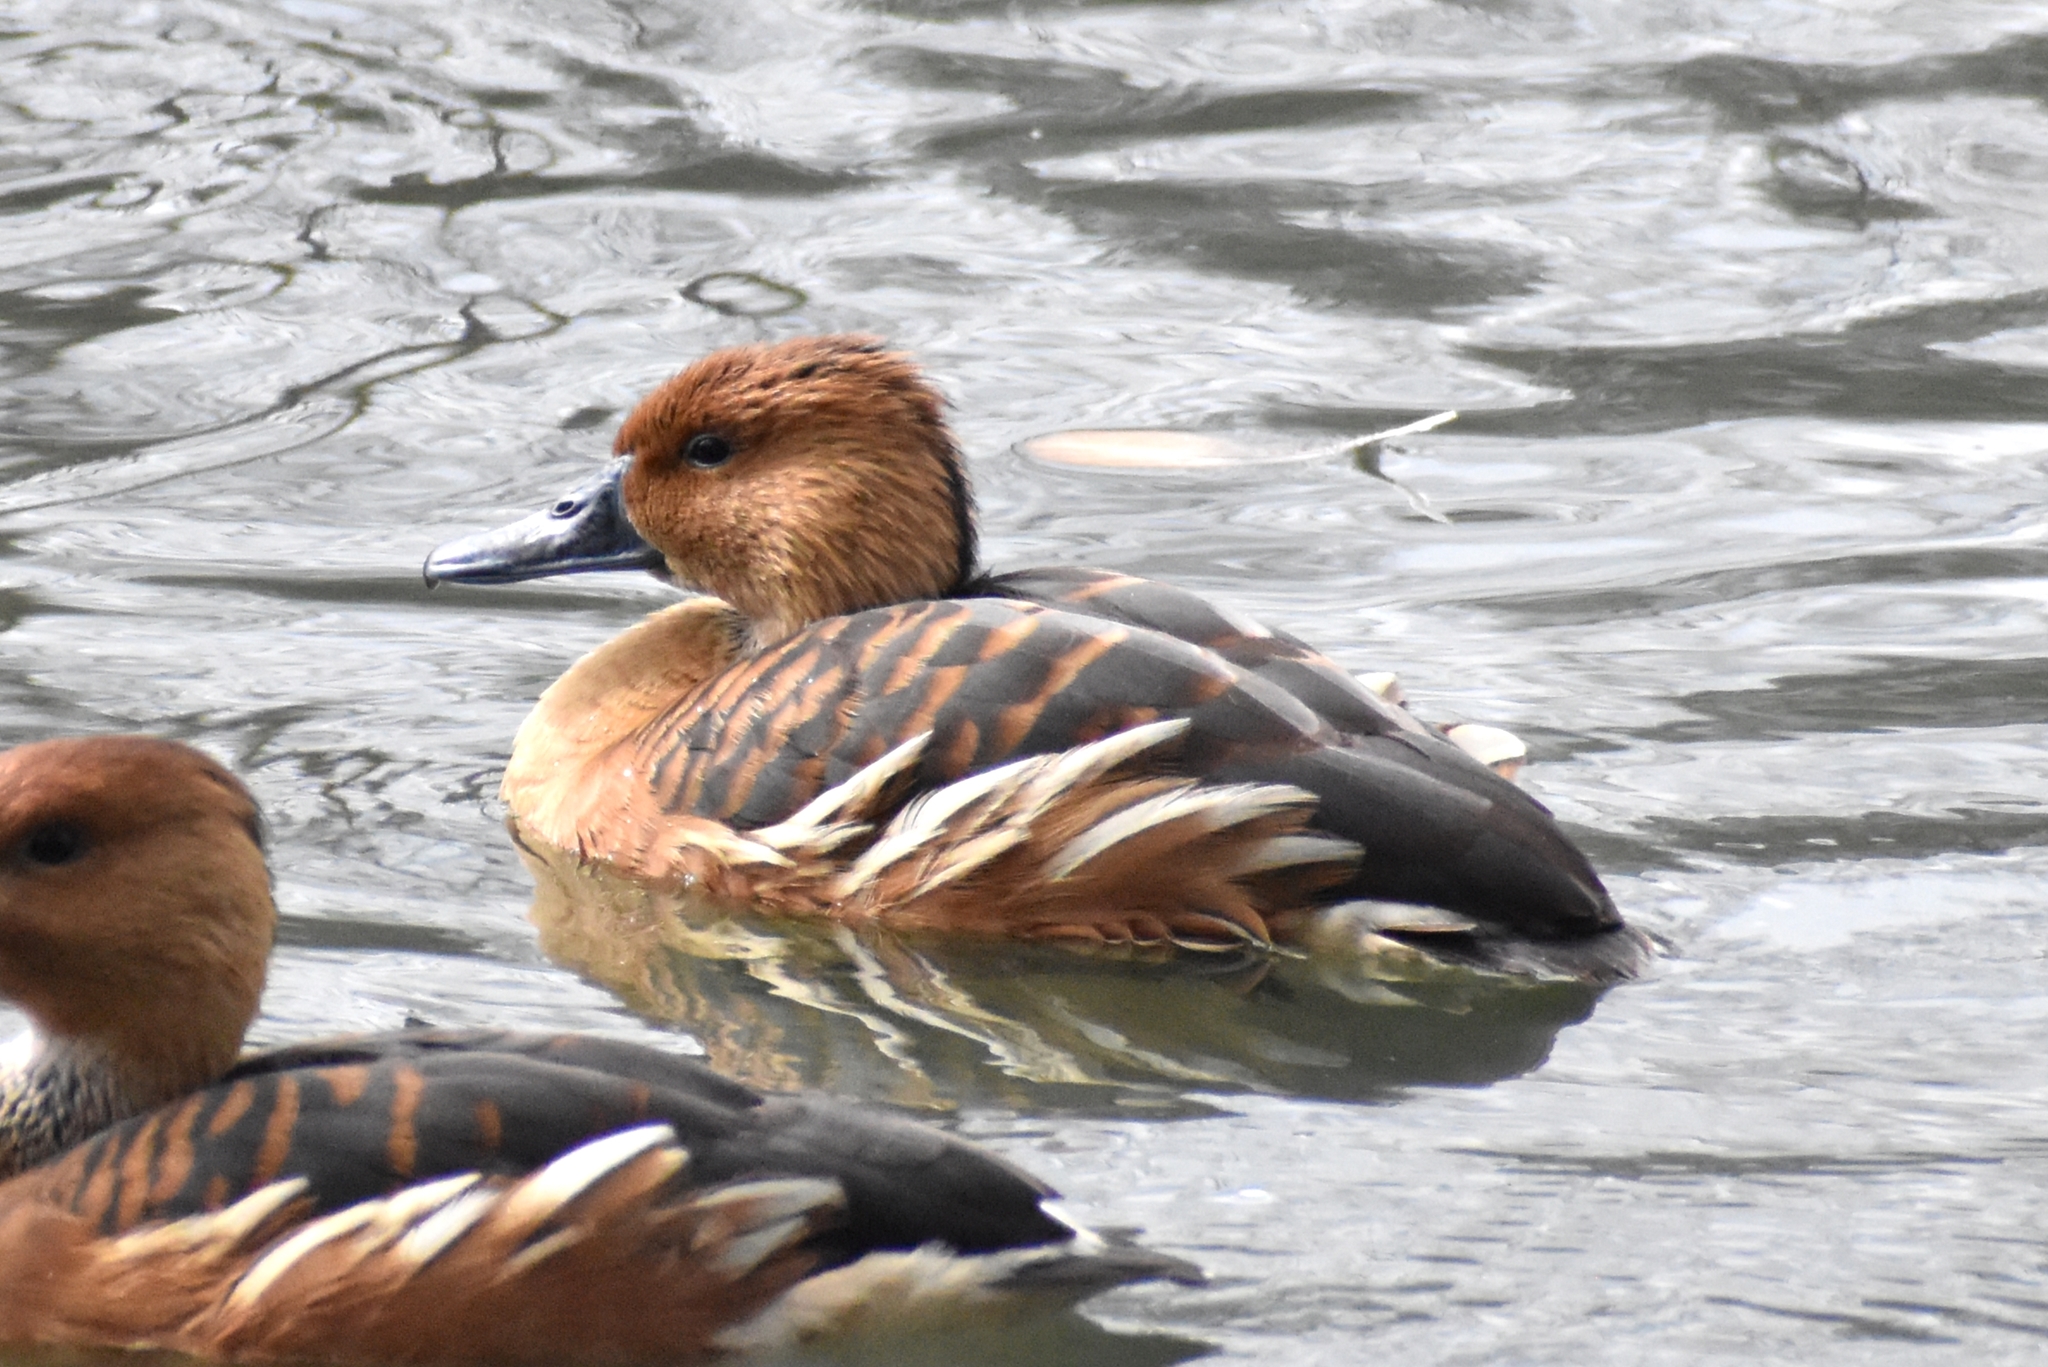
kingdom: Animalia
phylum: Chordata
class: Aves
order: Anseriformes
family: Anatidae
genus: Dendrocygna
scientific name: Dendrocygna bicolor
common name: Fulvous whistling duck
